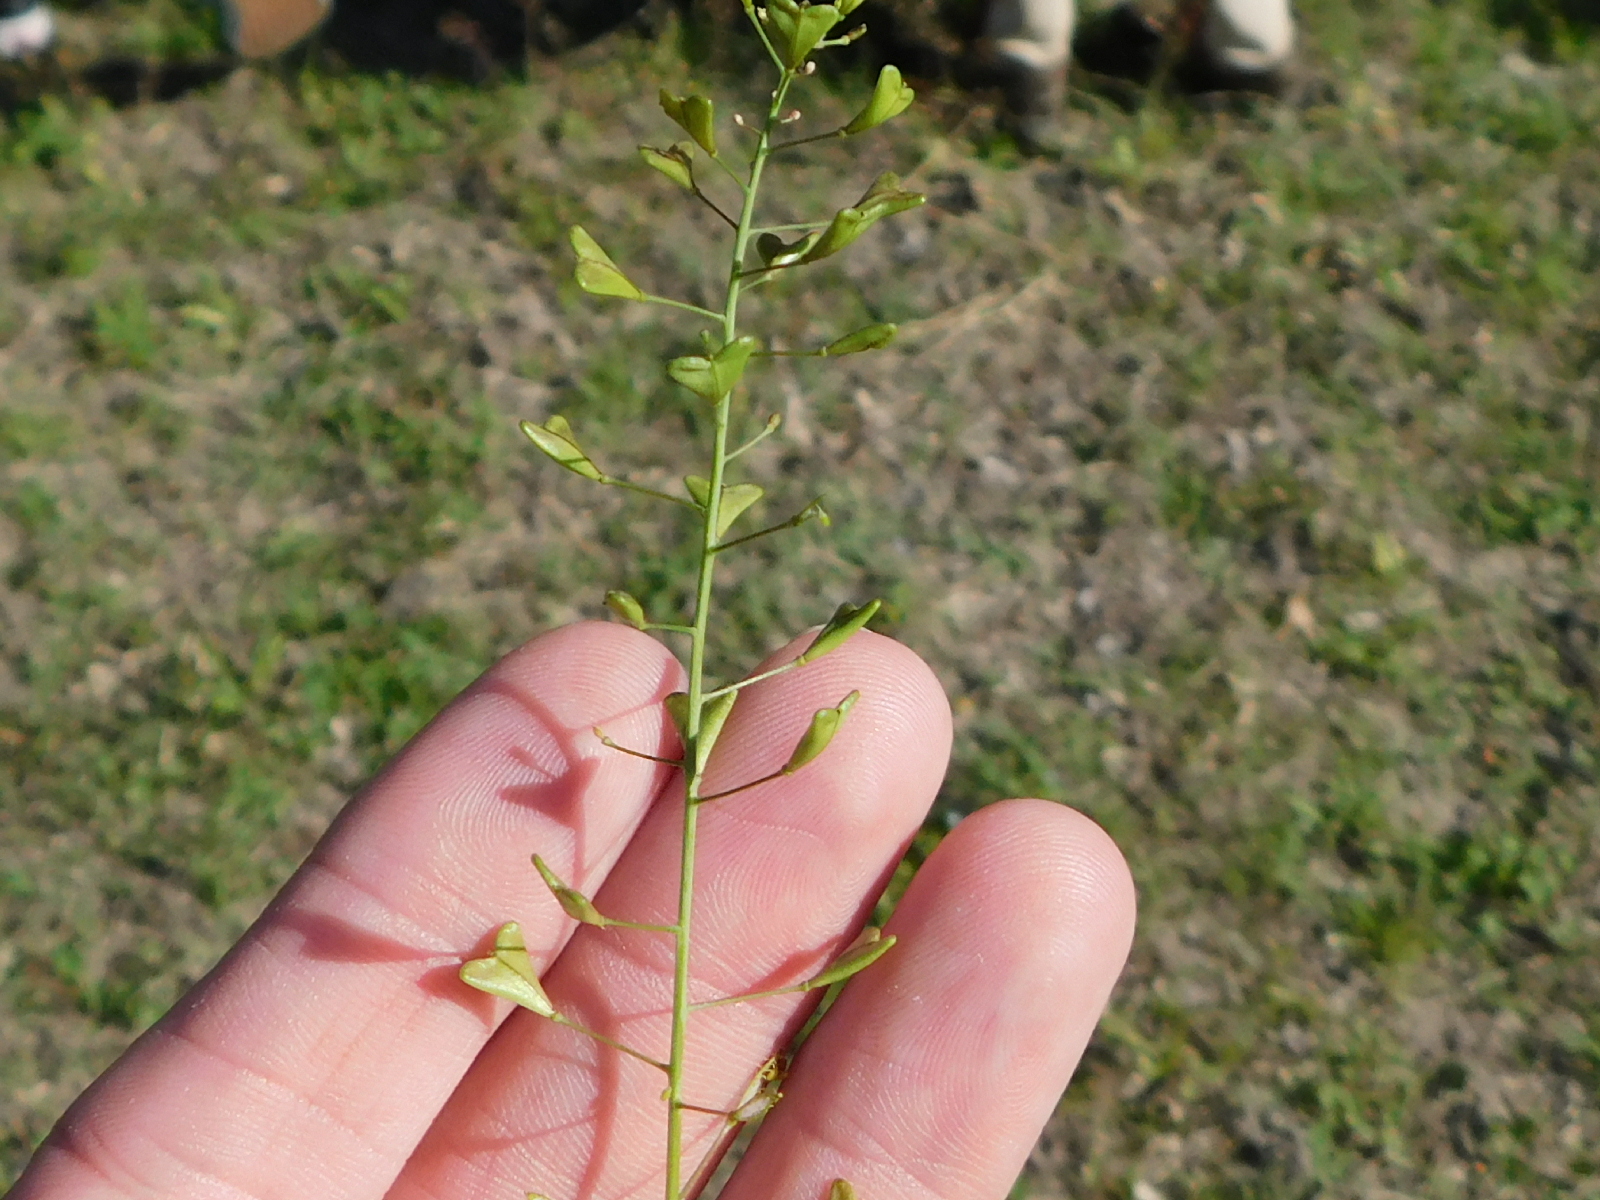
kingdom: Plantae
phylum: Tracheophyta
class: Magnoliopsida
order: Brassicales
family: Brassicaceae
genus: Capsella
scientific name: Capsella bursa-pastoris
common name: Shepherd's purse
